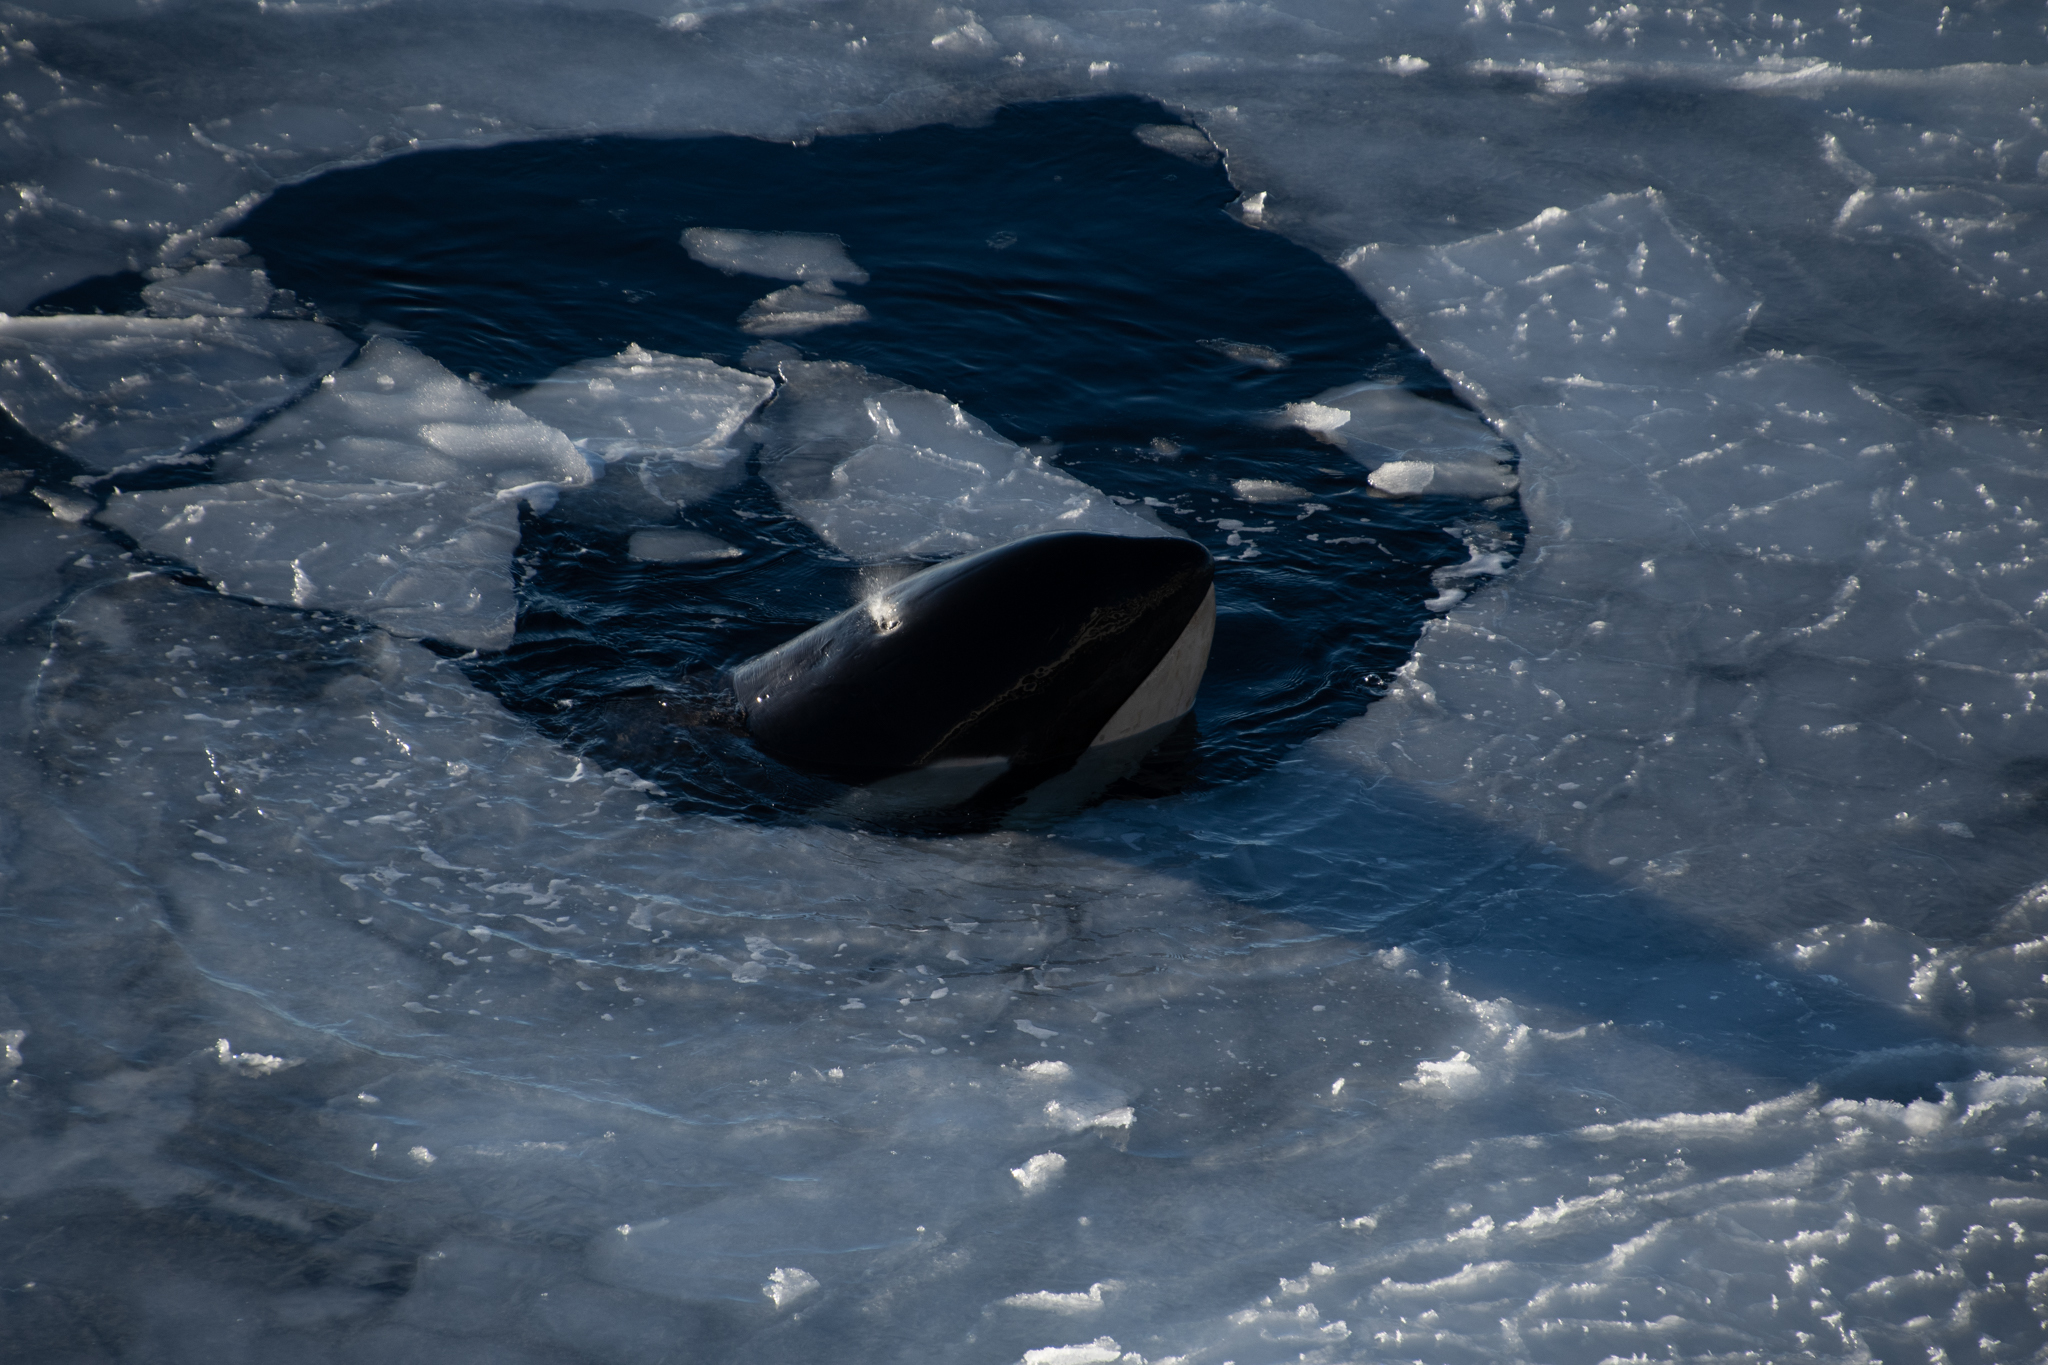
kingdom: Animalia
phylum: Chordata
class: Mammalia
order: Cetacea
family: Delphinidae
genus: Orcinus
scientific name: Orcinus orca
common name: Killer whale
